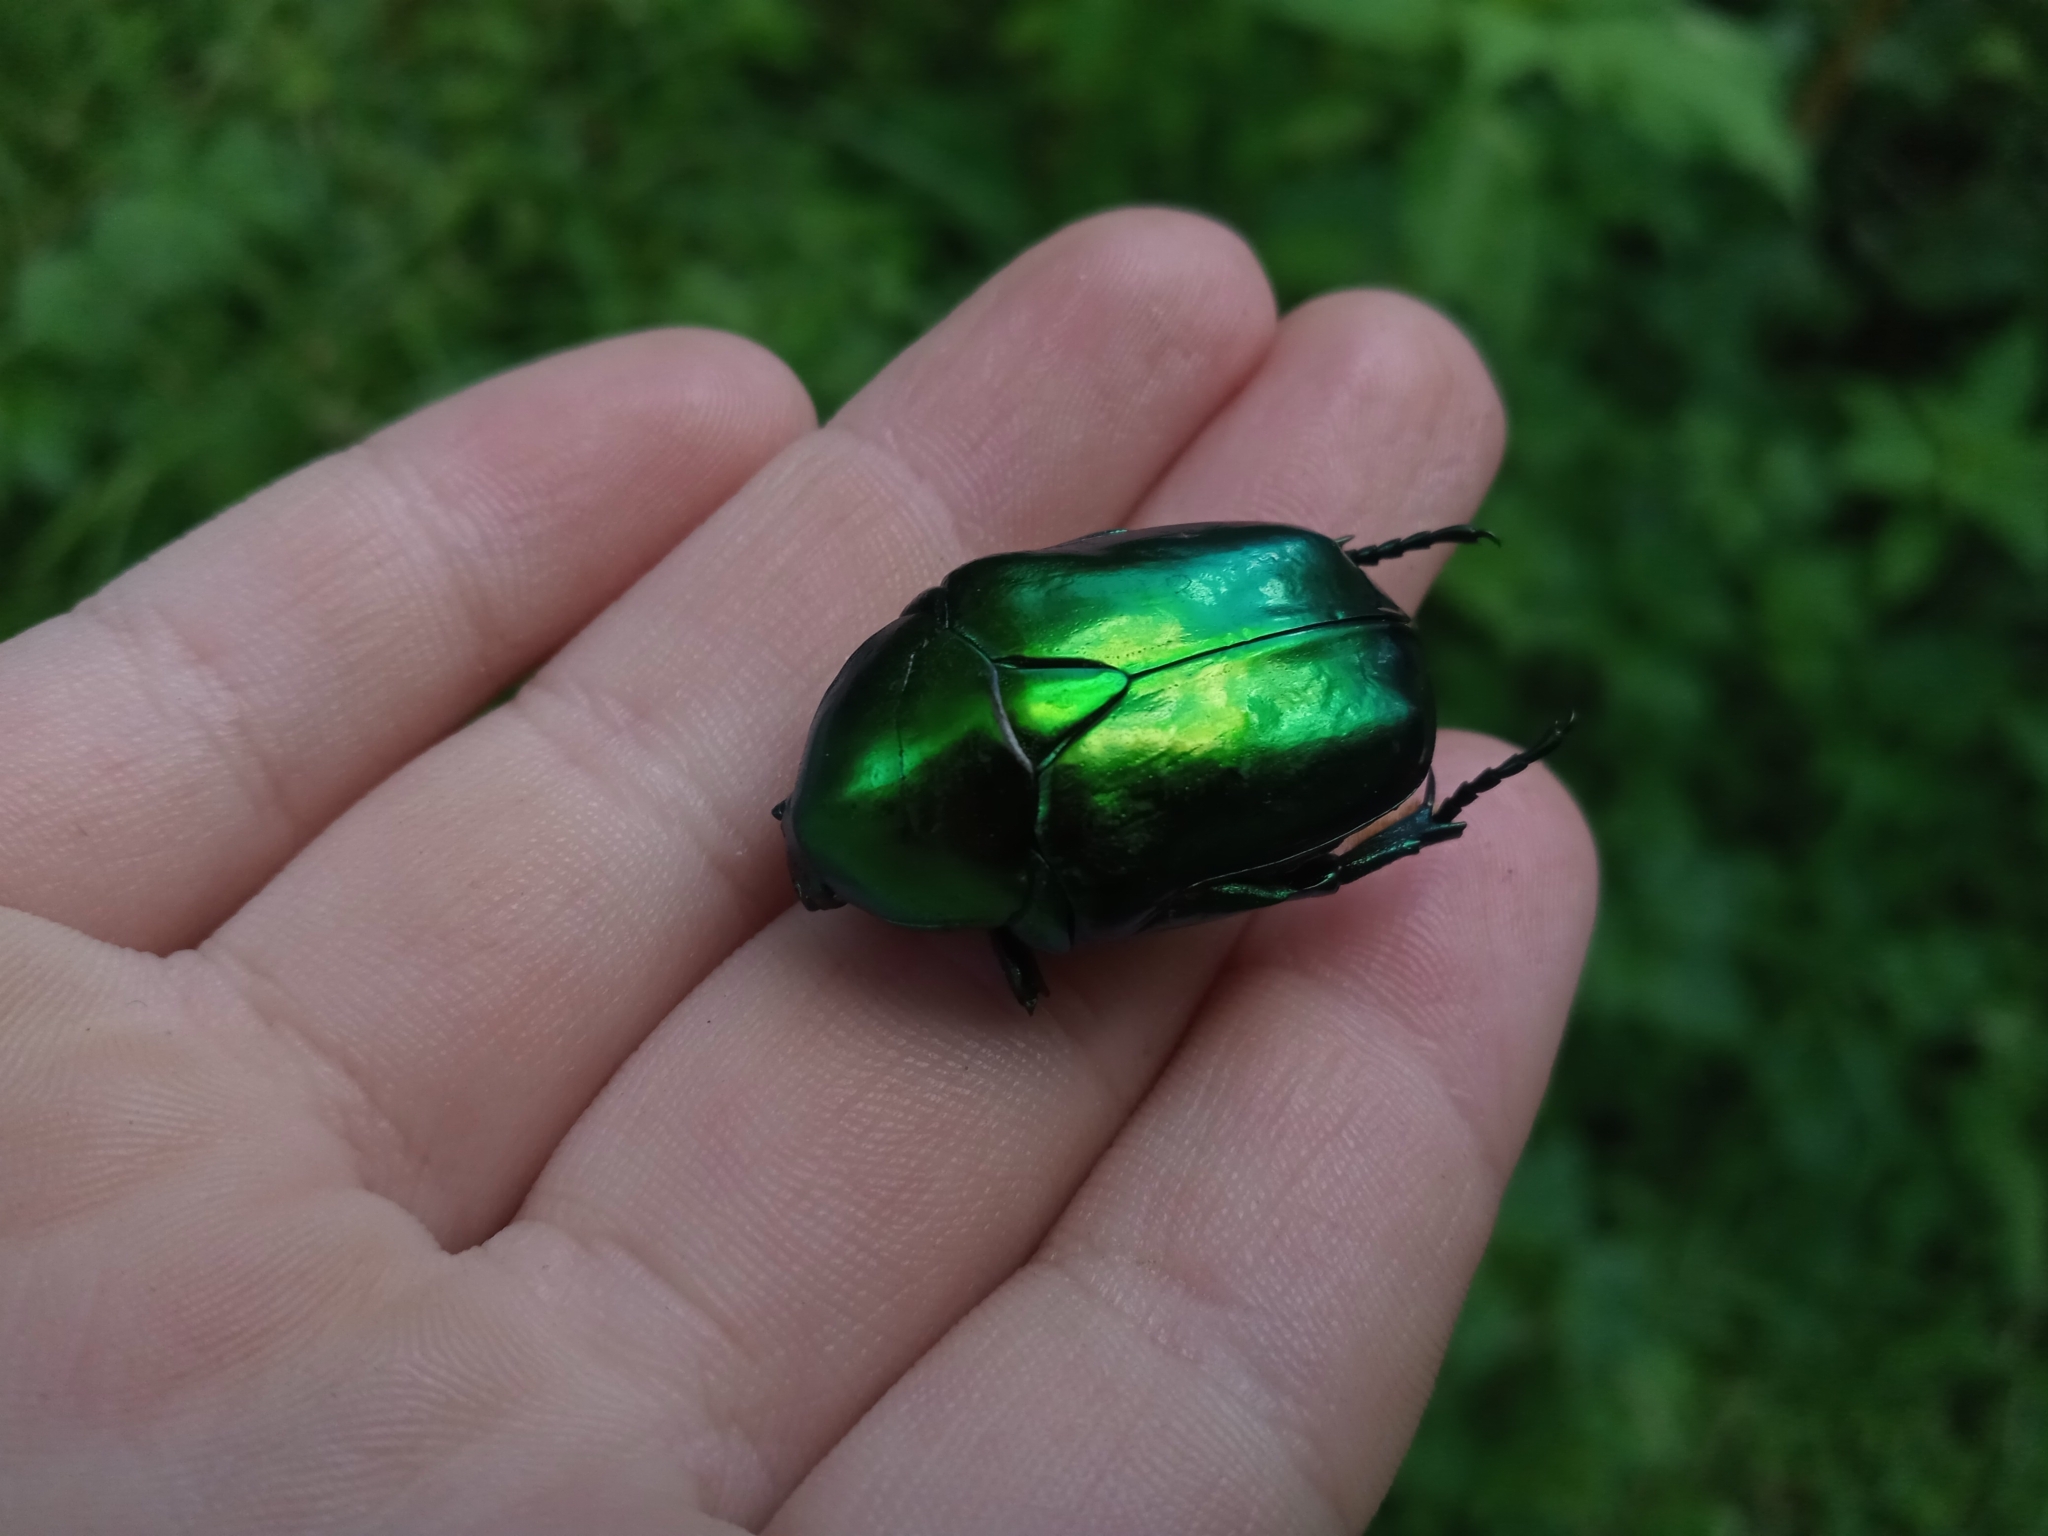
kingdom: Animalia
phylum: Arthropoda
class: Insecta
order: Coleoptera
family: Scarabaeidae
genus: Protaetia
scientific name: Protaetia speciosissima
